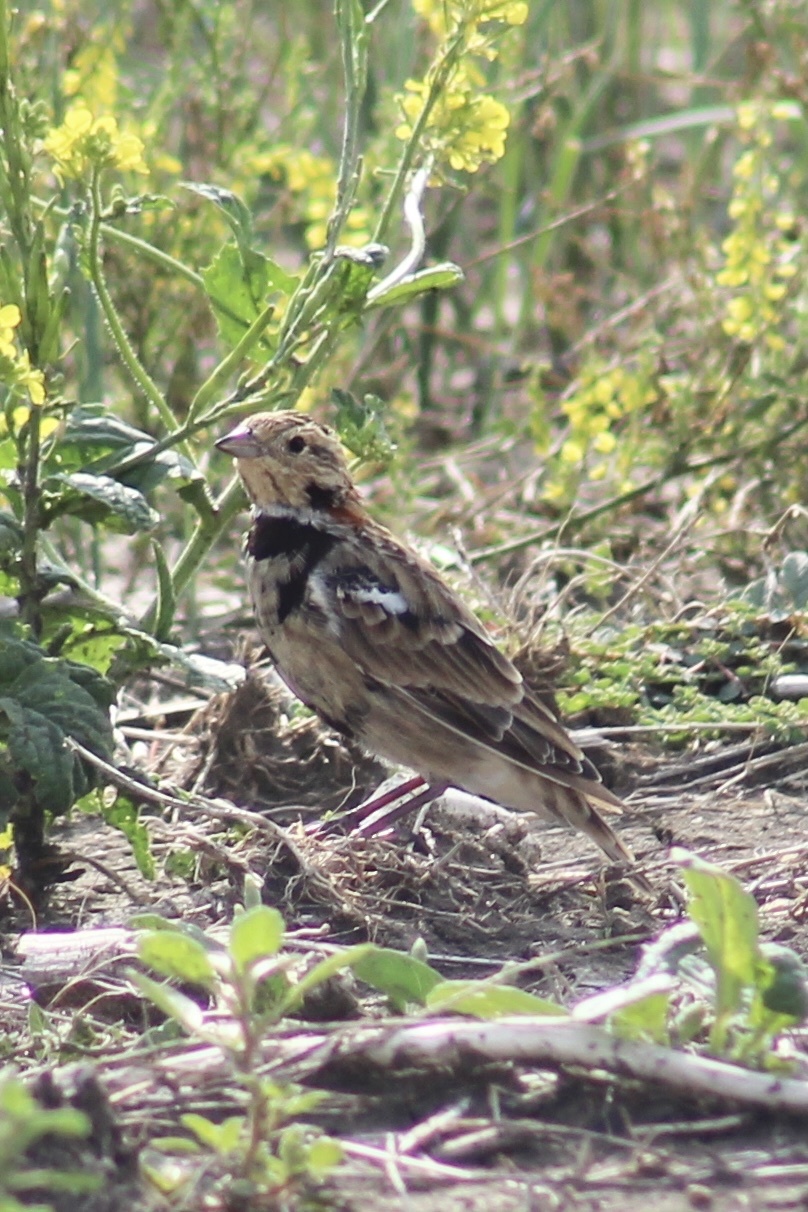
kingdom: Animalia
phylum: Chordata
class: Aves
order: Passeriformes
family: Calcariidae
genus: Calcarius
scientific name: Calcarius ornatus
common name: Chestnut-collared longspur
